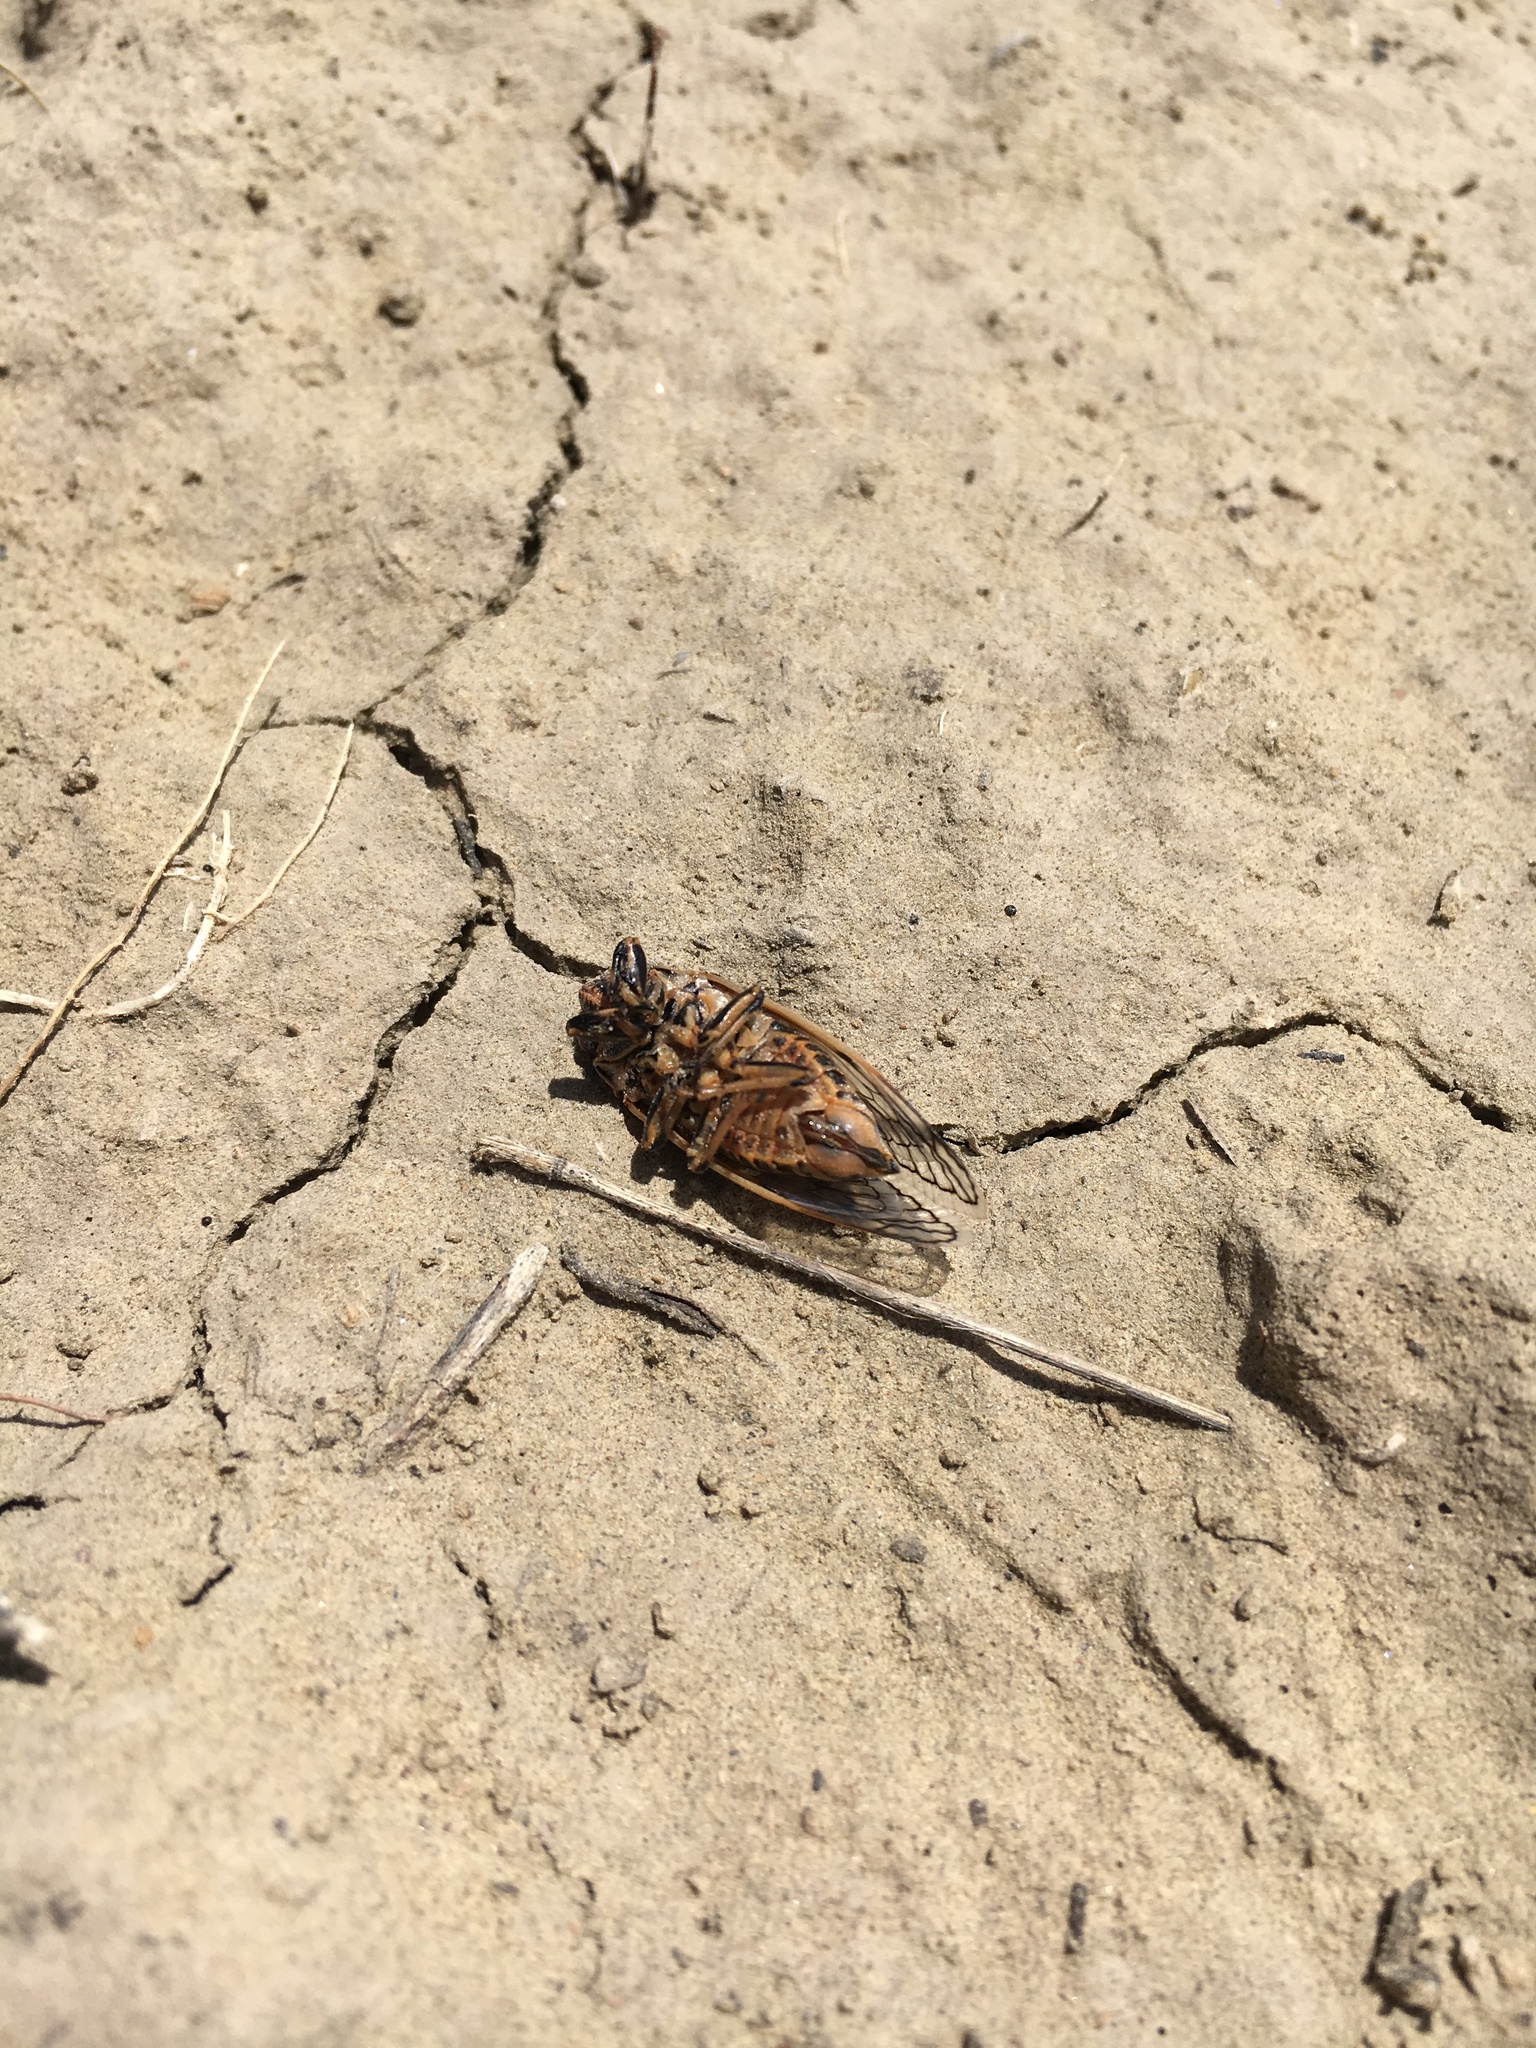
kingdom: Animalia
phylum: Arthropoda
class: Insecta
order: Hemiptera
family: Cicadidae
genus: Okanagana
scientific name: Okanagana synodica
